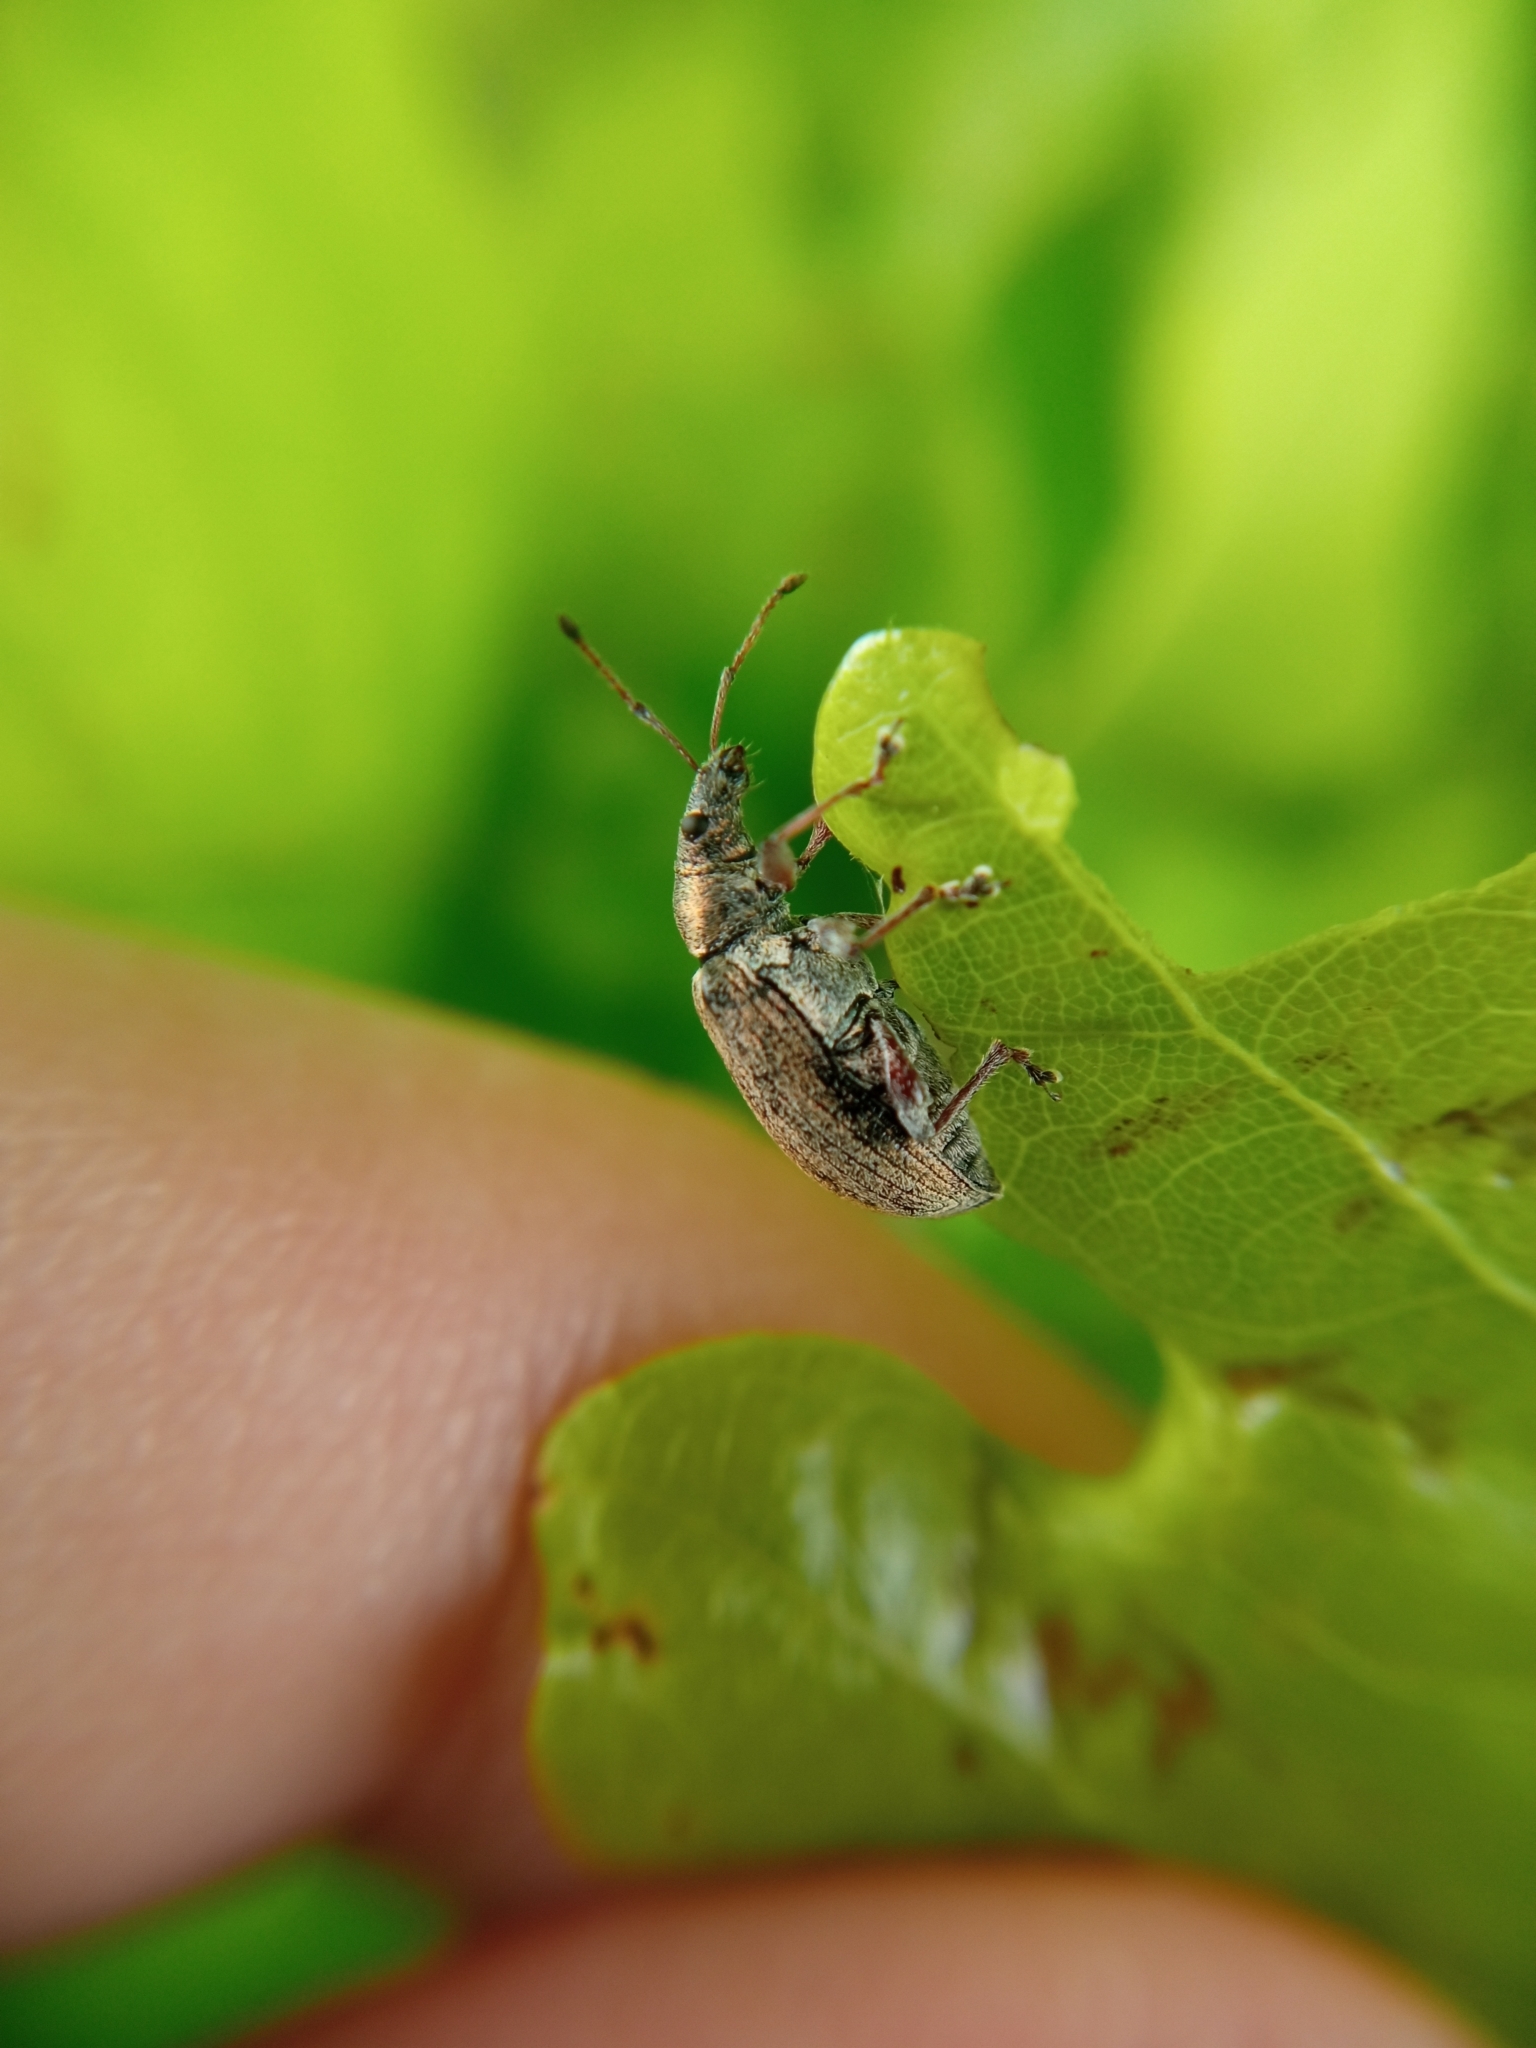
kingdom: Animalia
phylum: Arthropoda
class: Insecta
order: Coleoptera
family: Curculionidae
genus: Phyllobius
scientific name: Phyllobius pyri
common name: Common leaf weevil
